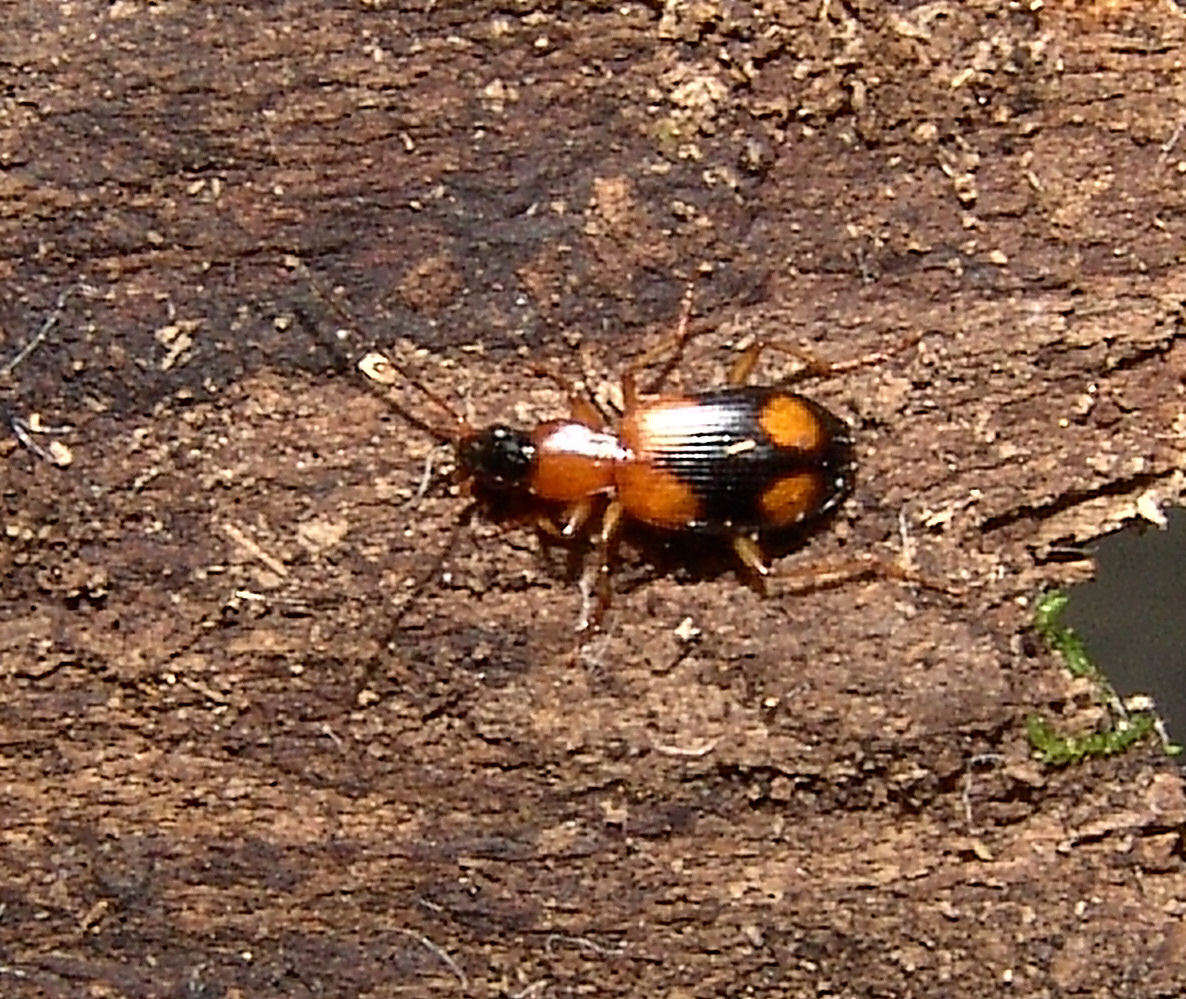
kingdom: Animalia
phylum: Arthropoda
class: Insecta
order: Coleoptera
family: Carabidae
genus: Agonum
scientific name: Agonum quadrimaculatum
